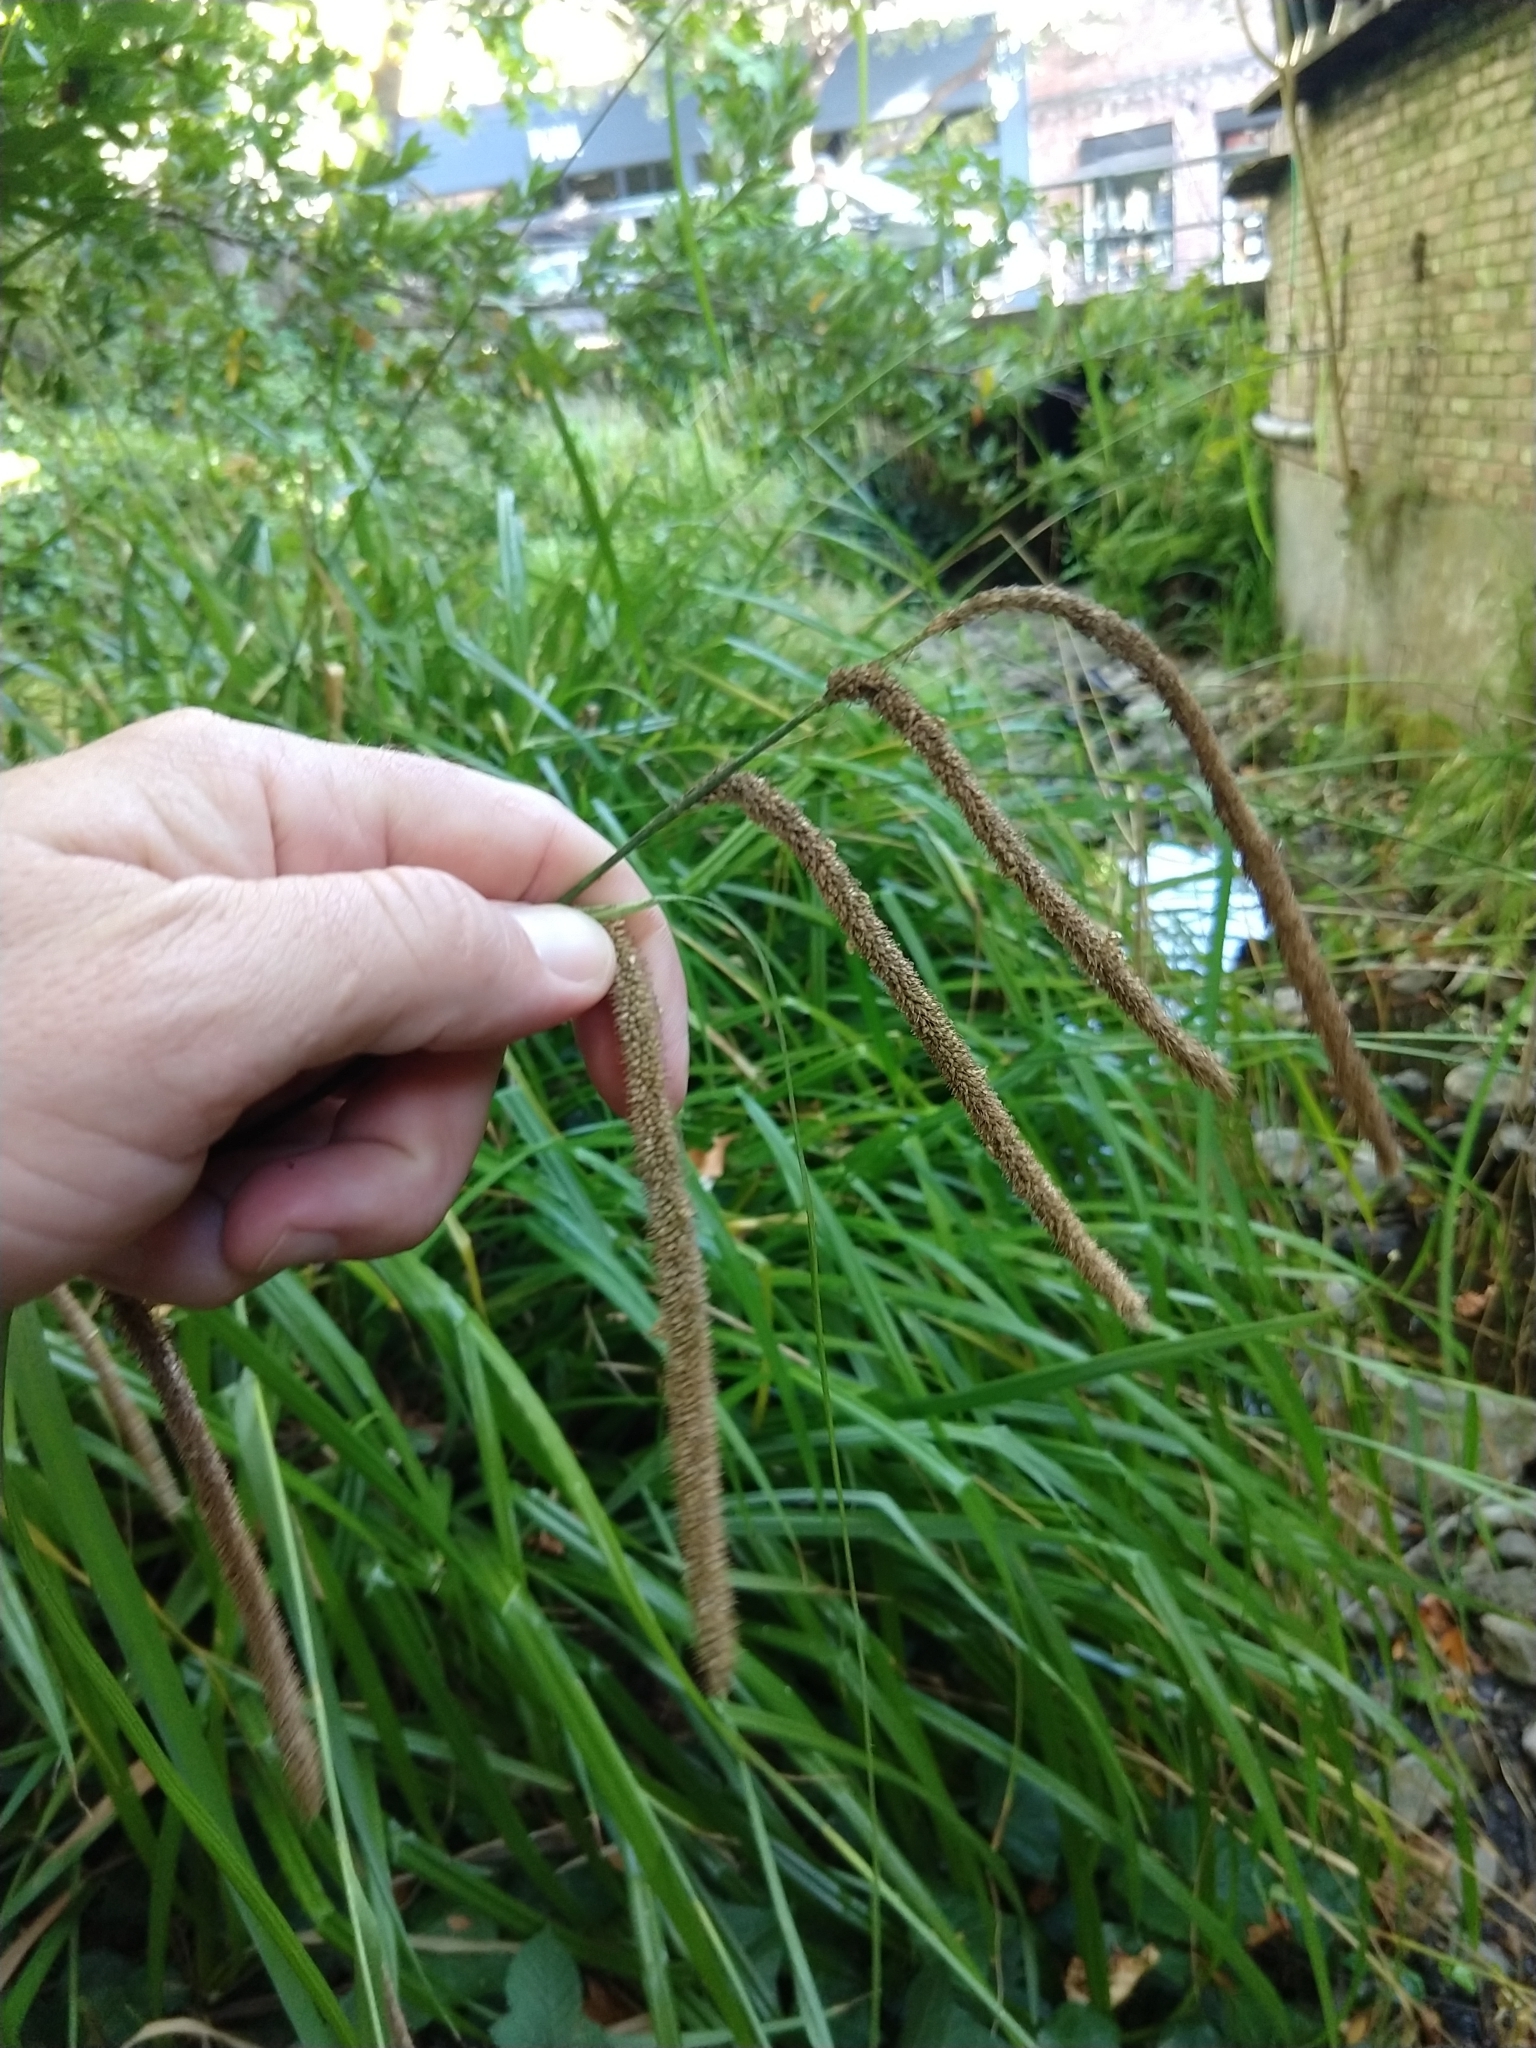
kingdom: Plantae
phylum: Tracheophyta
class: Liliopsida
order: Poales
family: Cyperaceae
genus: Carex
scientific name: Carex pendula
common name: Pendulous sedge
